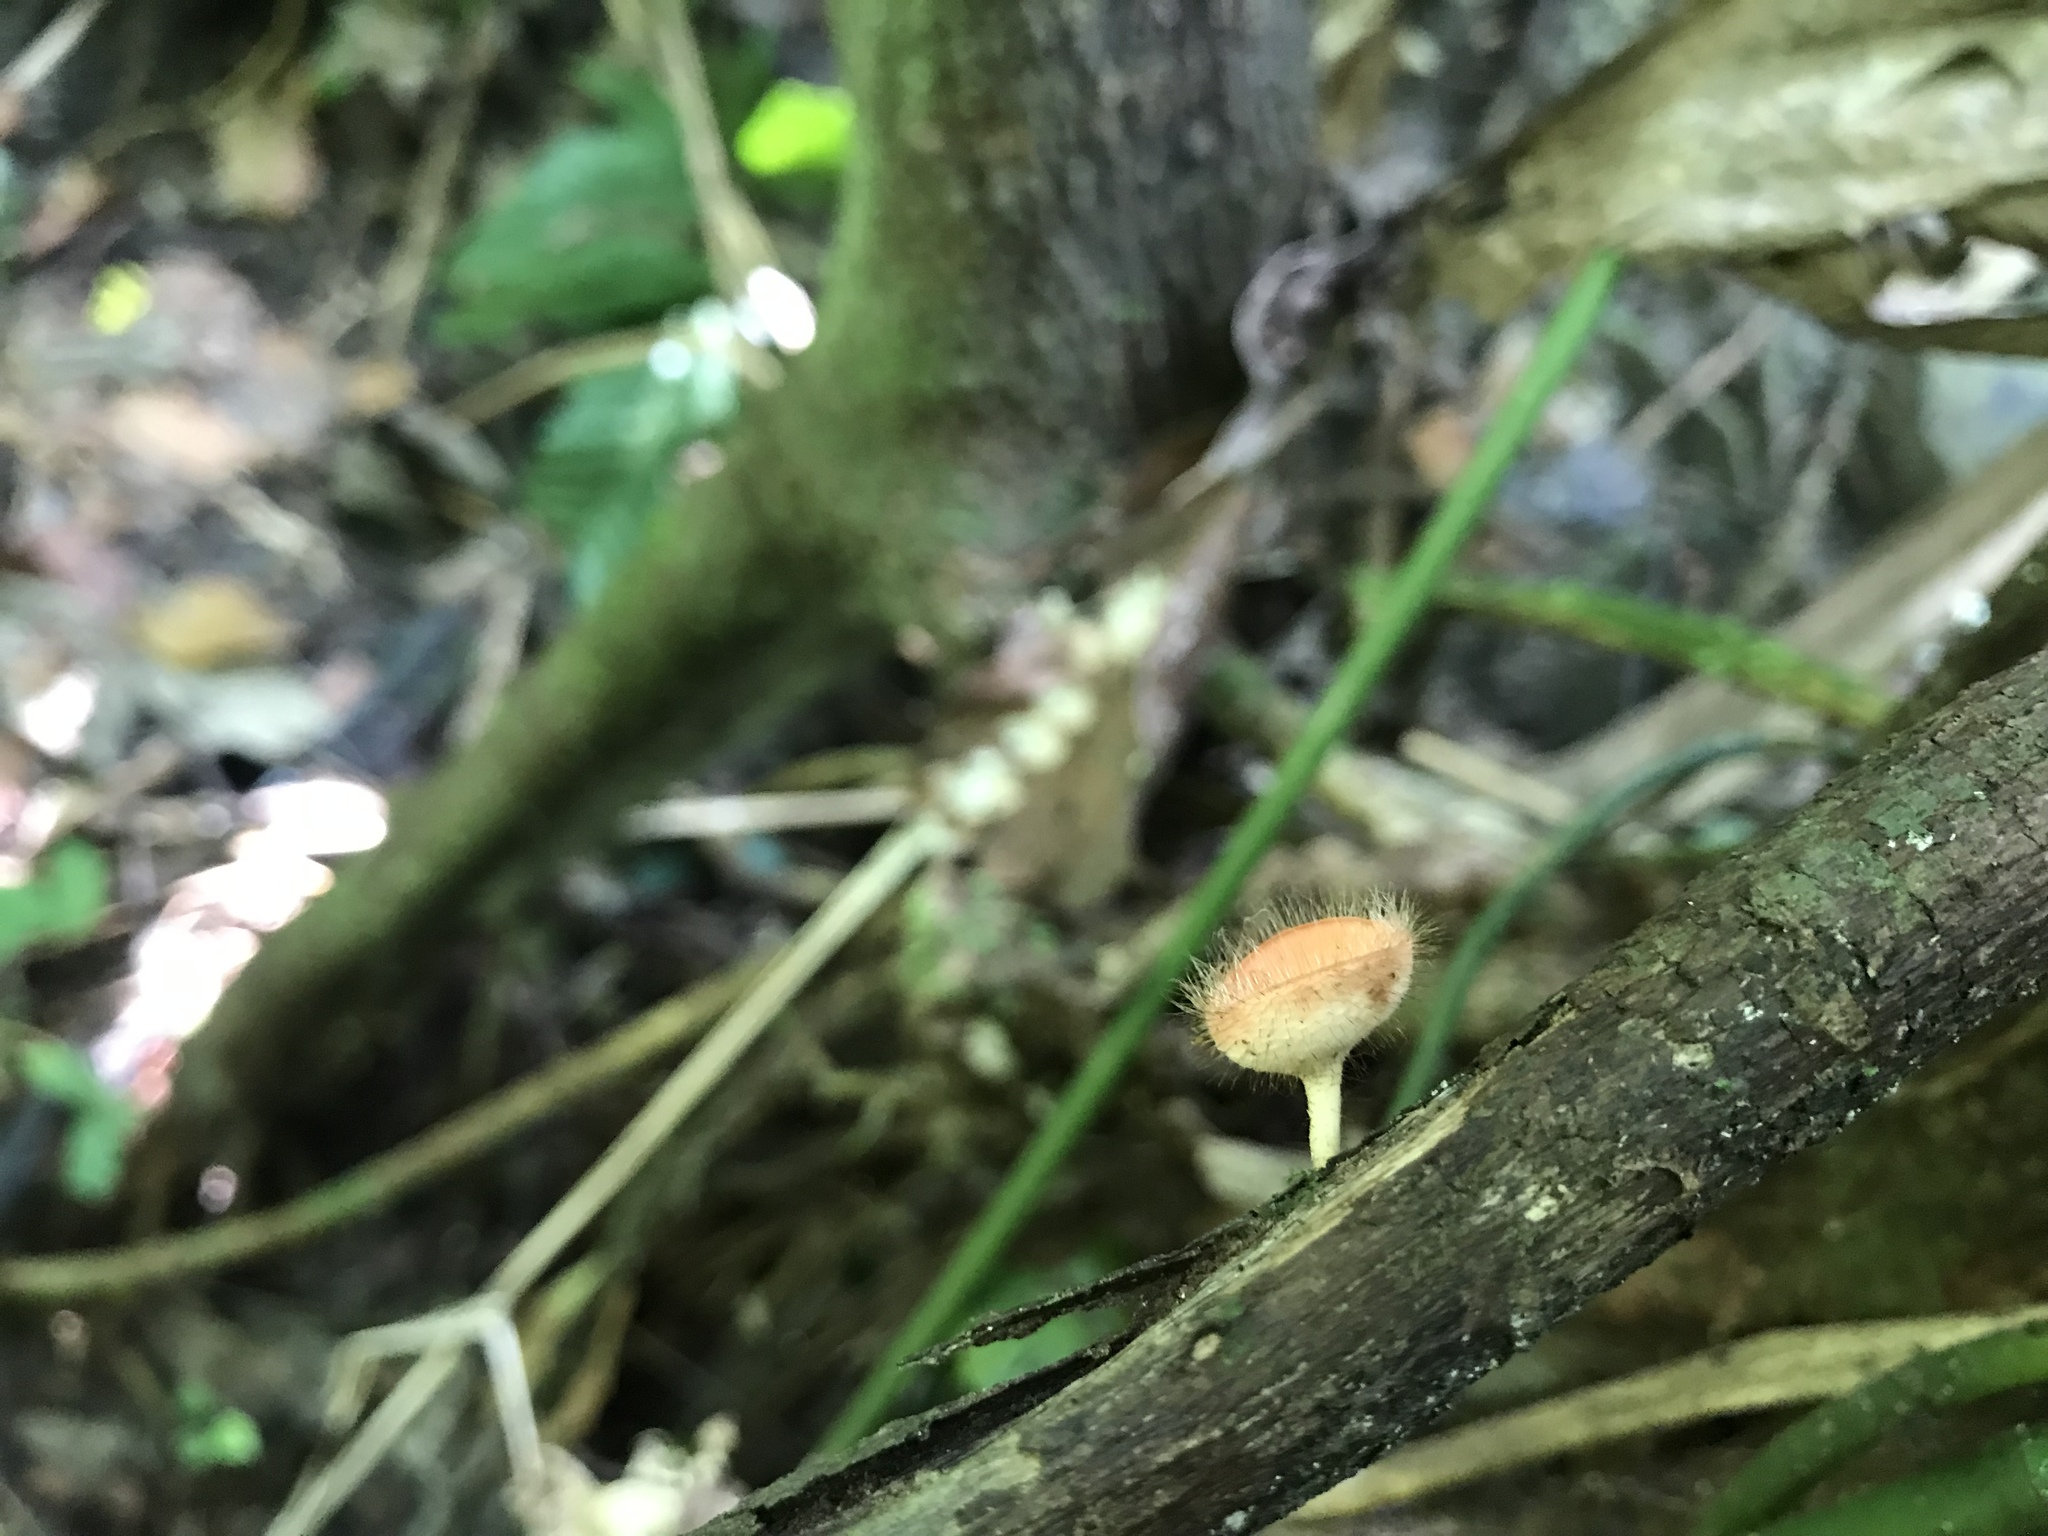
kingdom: Fungi
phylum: Ascomycota
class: Pezizomycetes
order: Pezizales
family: Sarcoscyphaceae
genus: Cookeina
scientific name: Cookeina tricholoma
